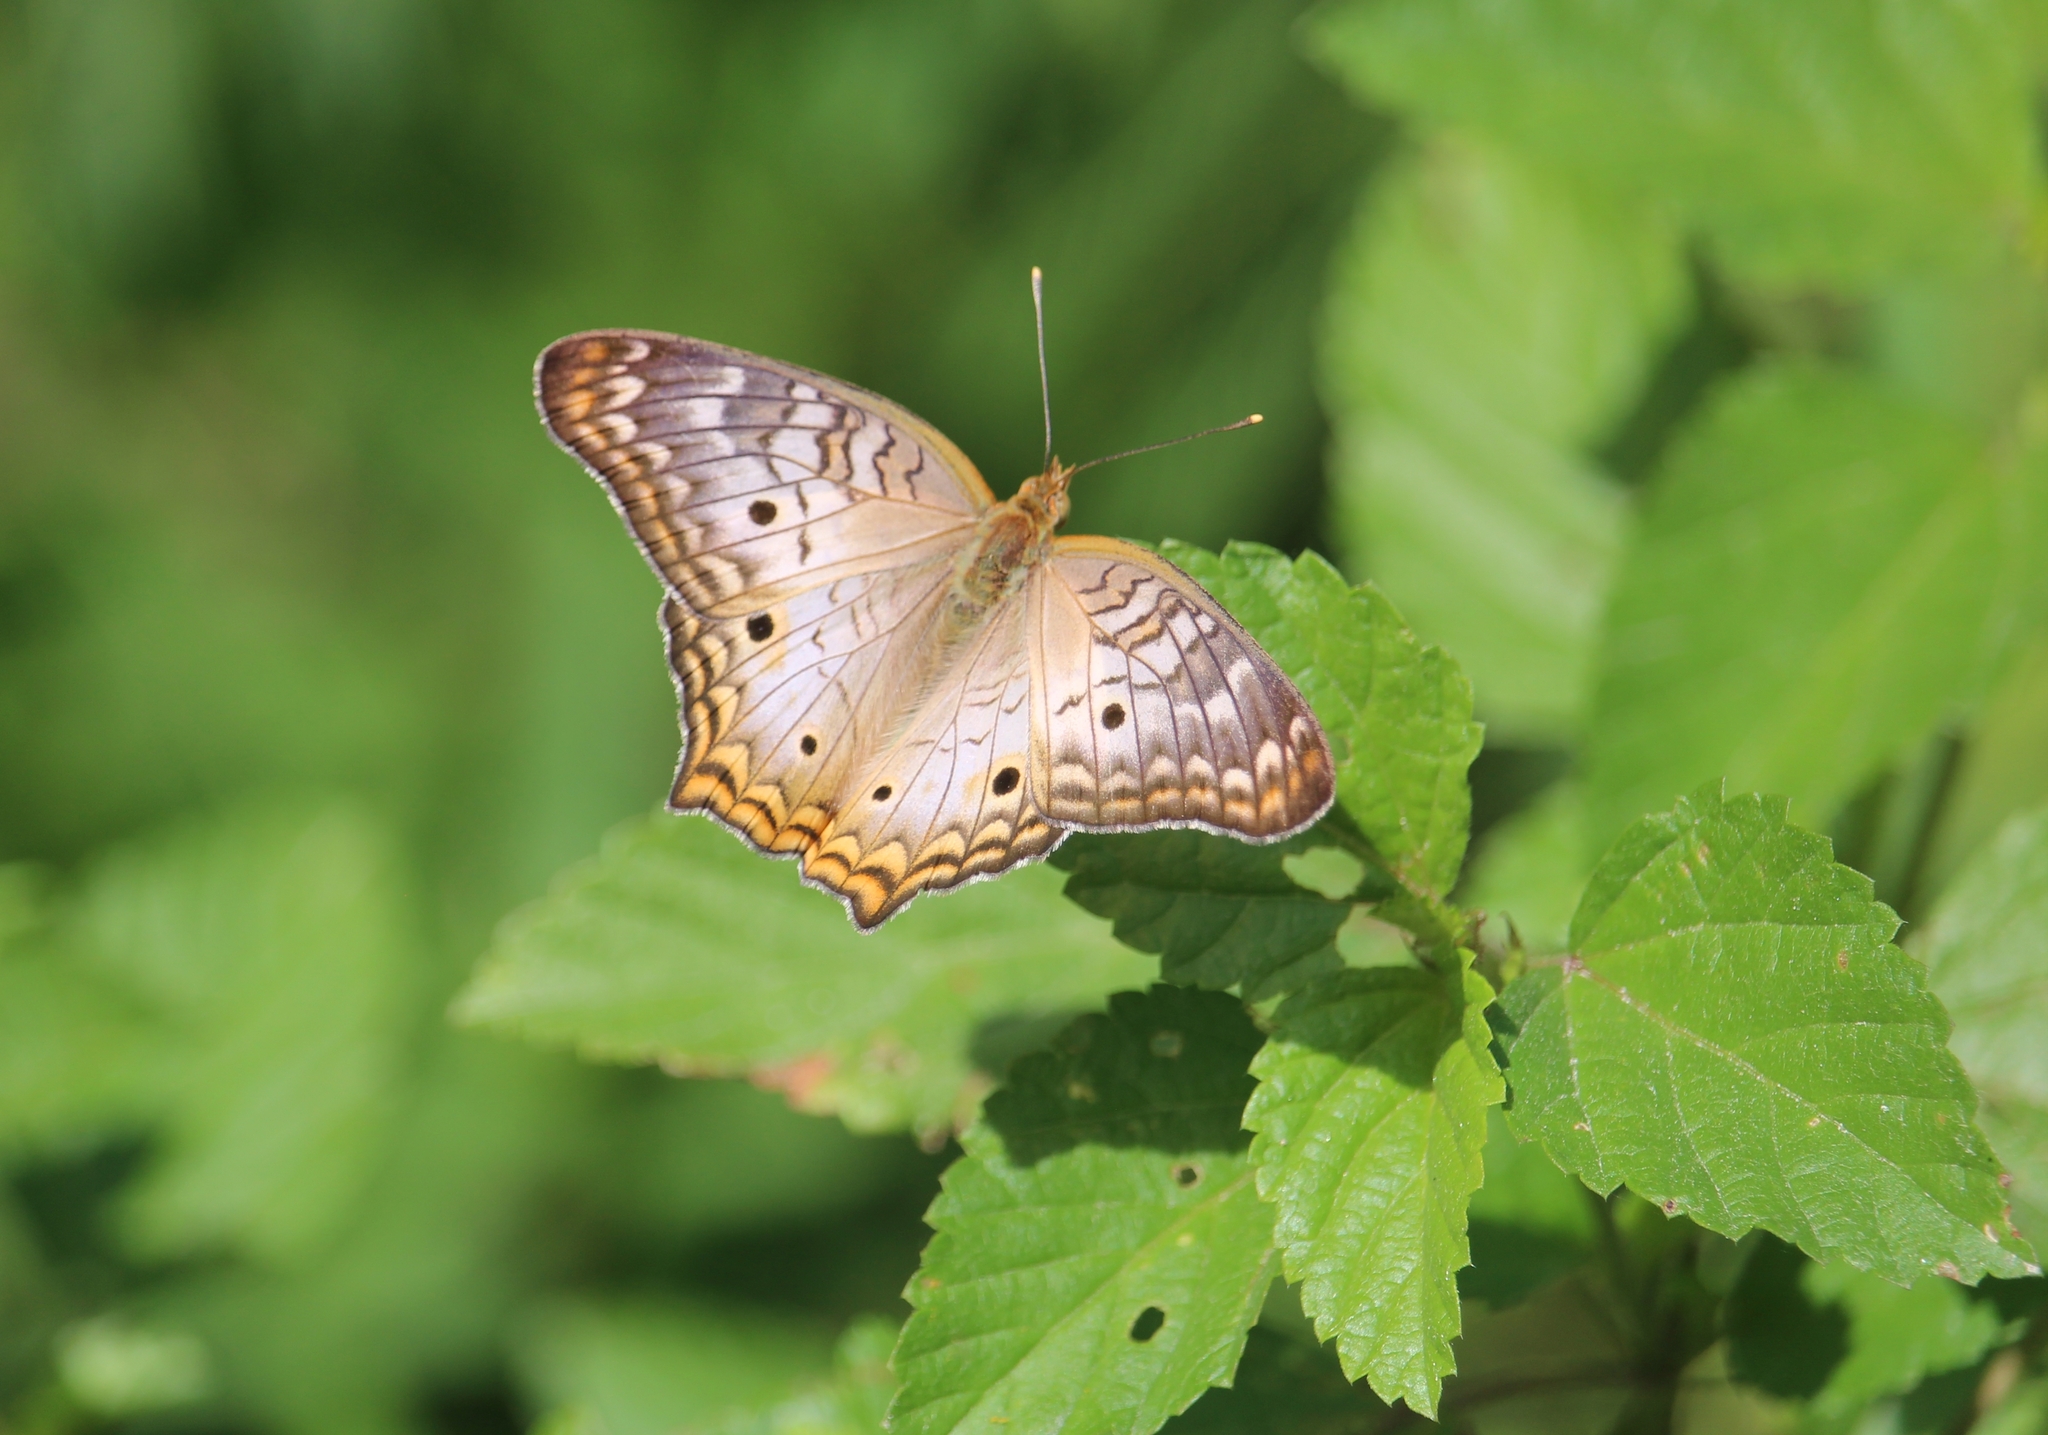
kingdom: Animalia
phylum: Arthropoda
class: Insecta
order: Lepidoptera
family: Nymphalidae
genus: Anartia
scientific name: Anartia jatrophae
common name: White peacock
